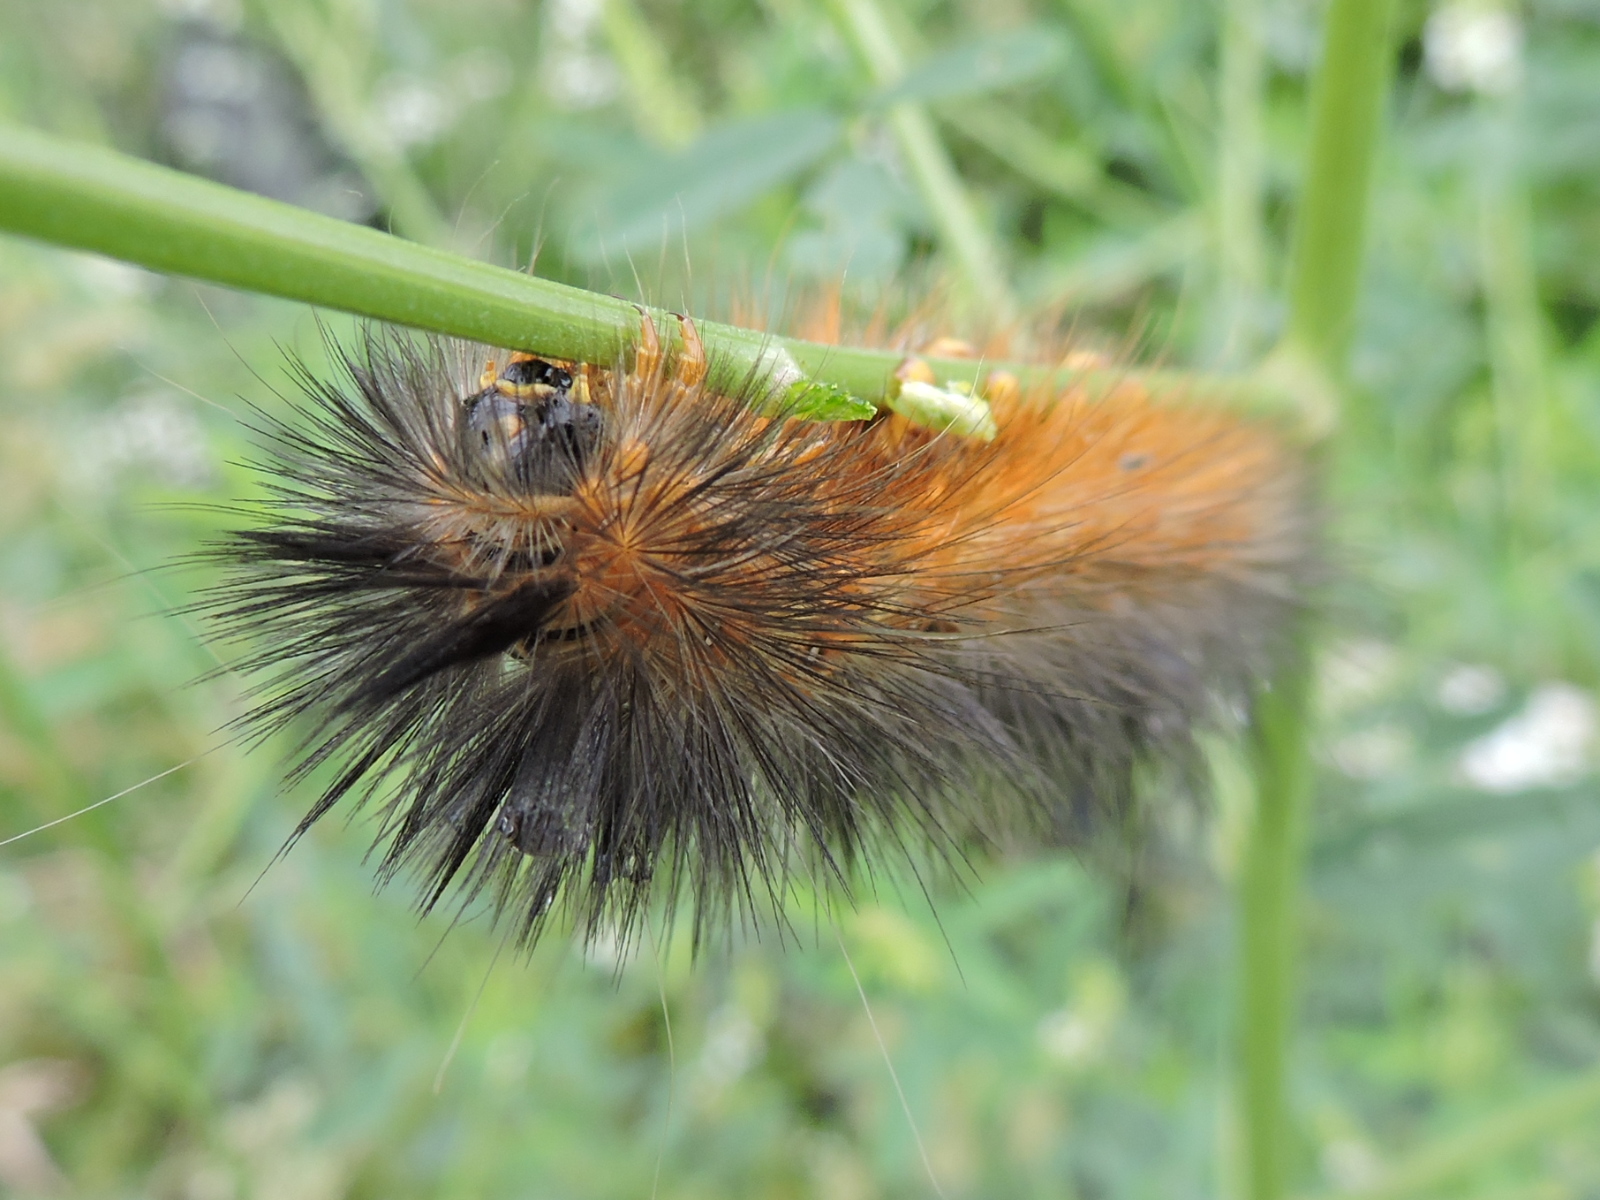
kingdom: Animalia
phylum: Arthropoda
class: Insecta
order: Lepidoptera
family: Erebidae
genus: Estigmene
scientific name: Estigmene acrea
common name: Salt marsh moth
